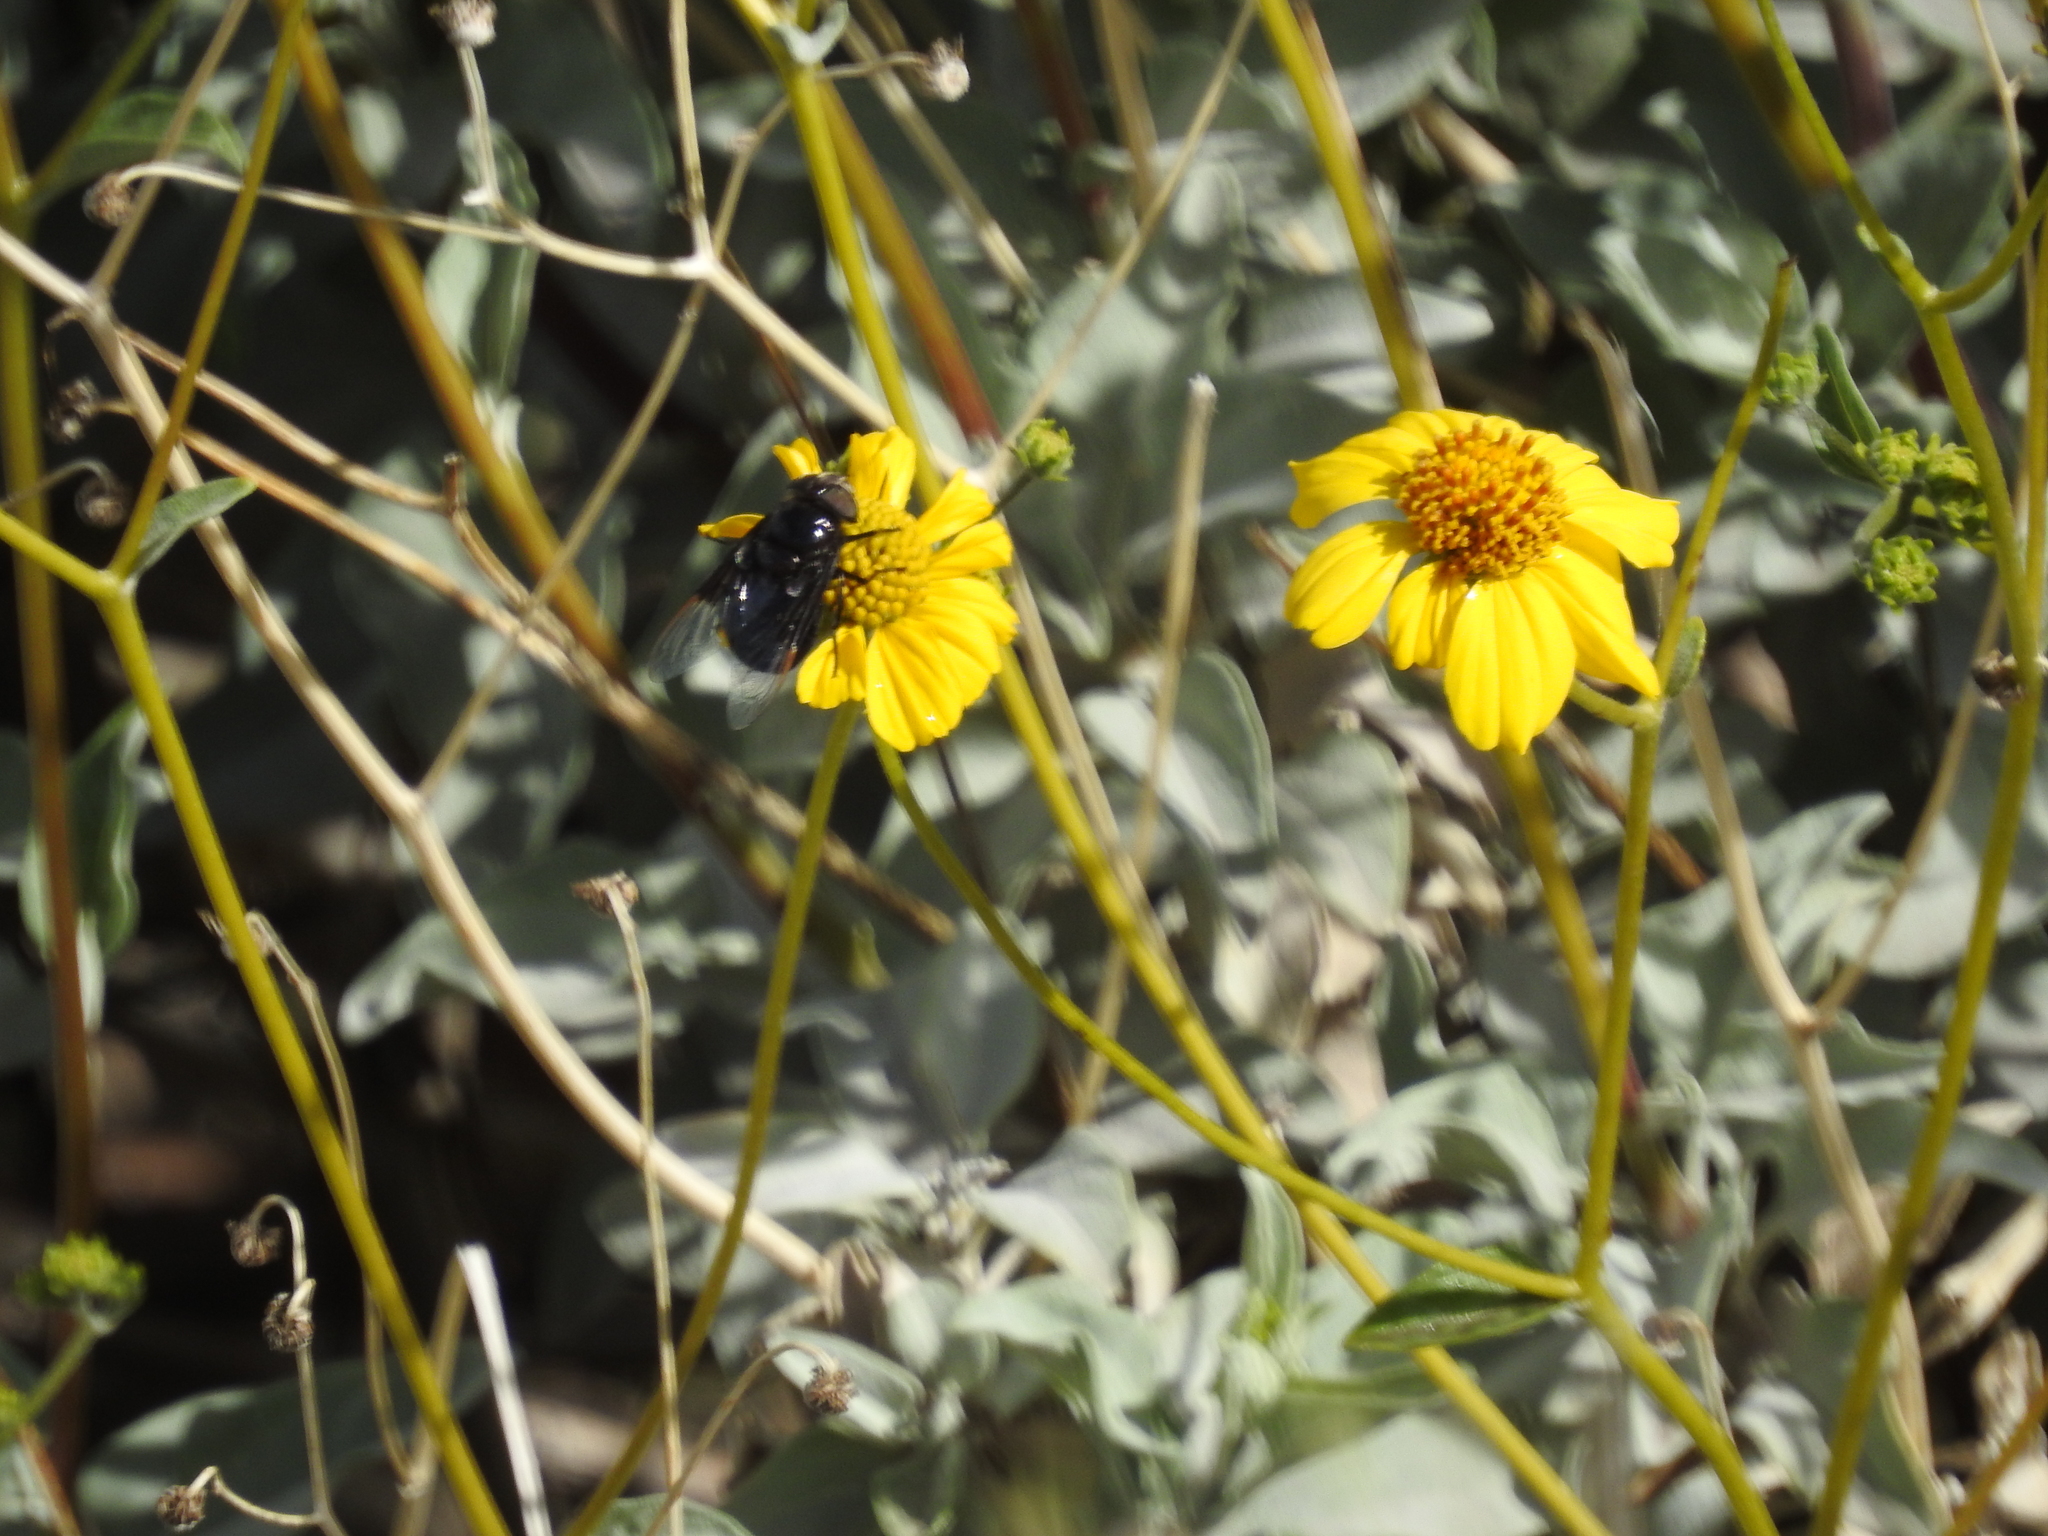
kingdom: Animalia
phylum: Arthropoda
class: Insecta
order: Diptera
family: Syrphidae
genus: Copestylum
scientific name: Copestylum
